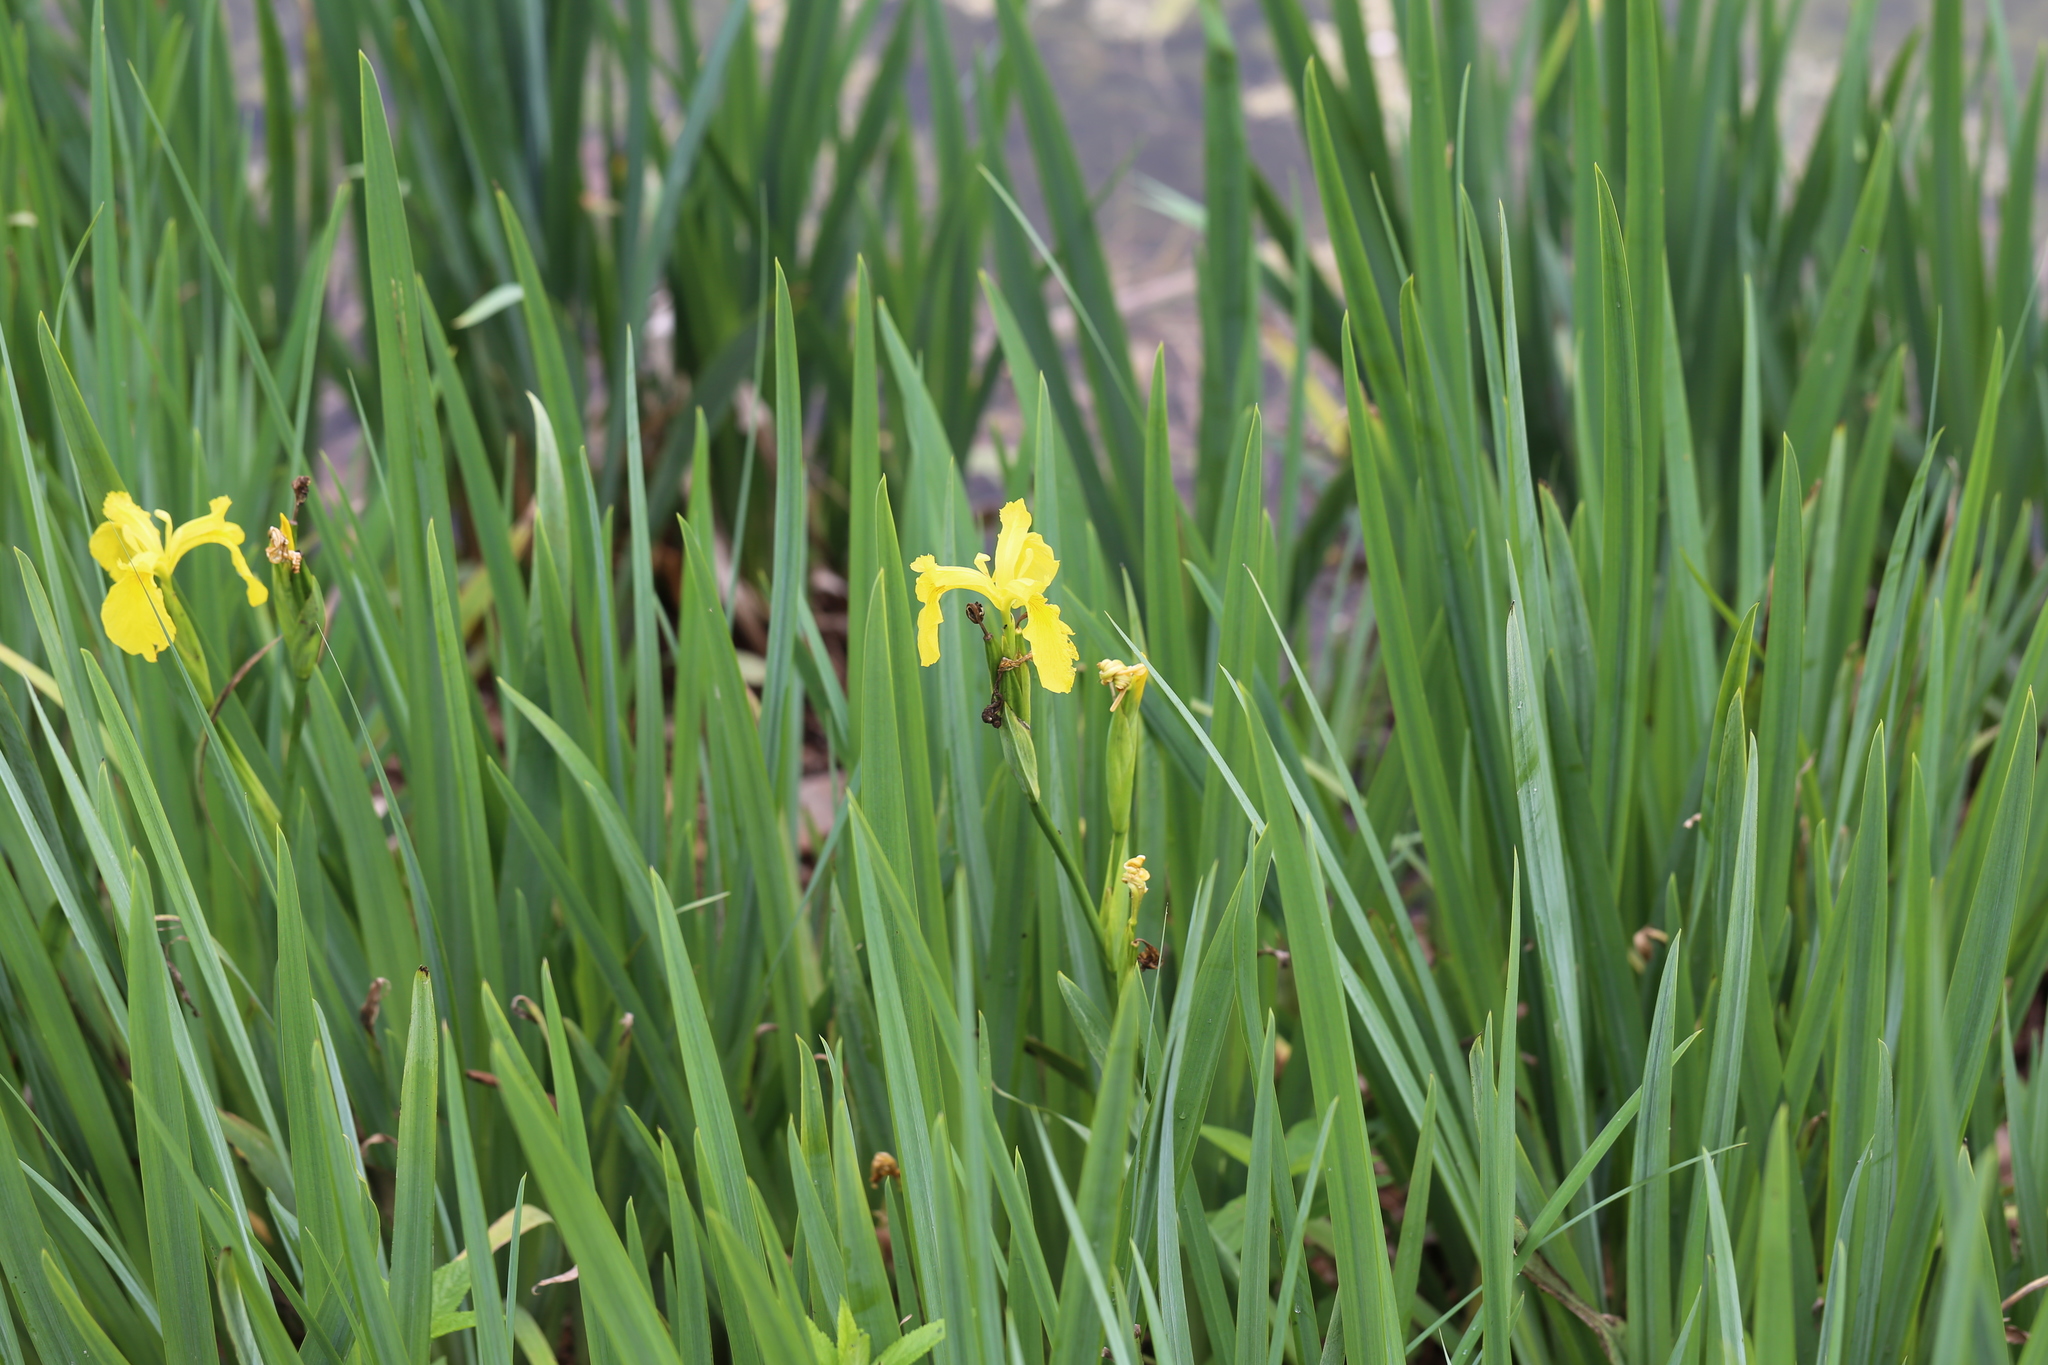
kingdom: Plantae
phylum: Tracheophyta
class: Liliopsida
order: Asparagales
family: Iridaceae
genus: Iris
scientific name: Iris pseudacorus
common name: Yellow flag
